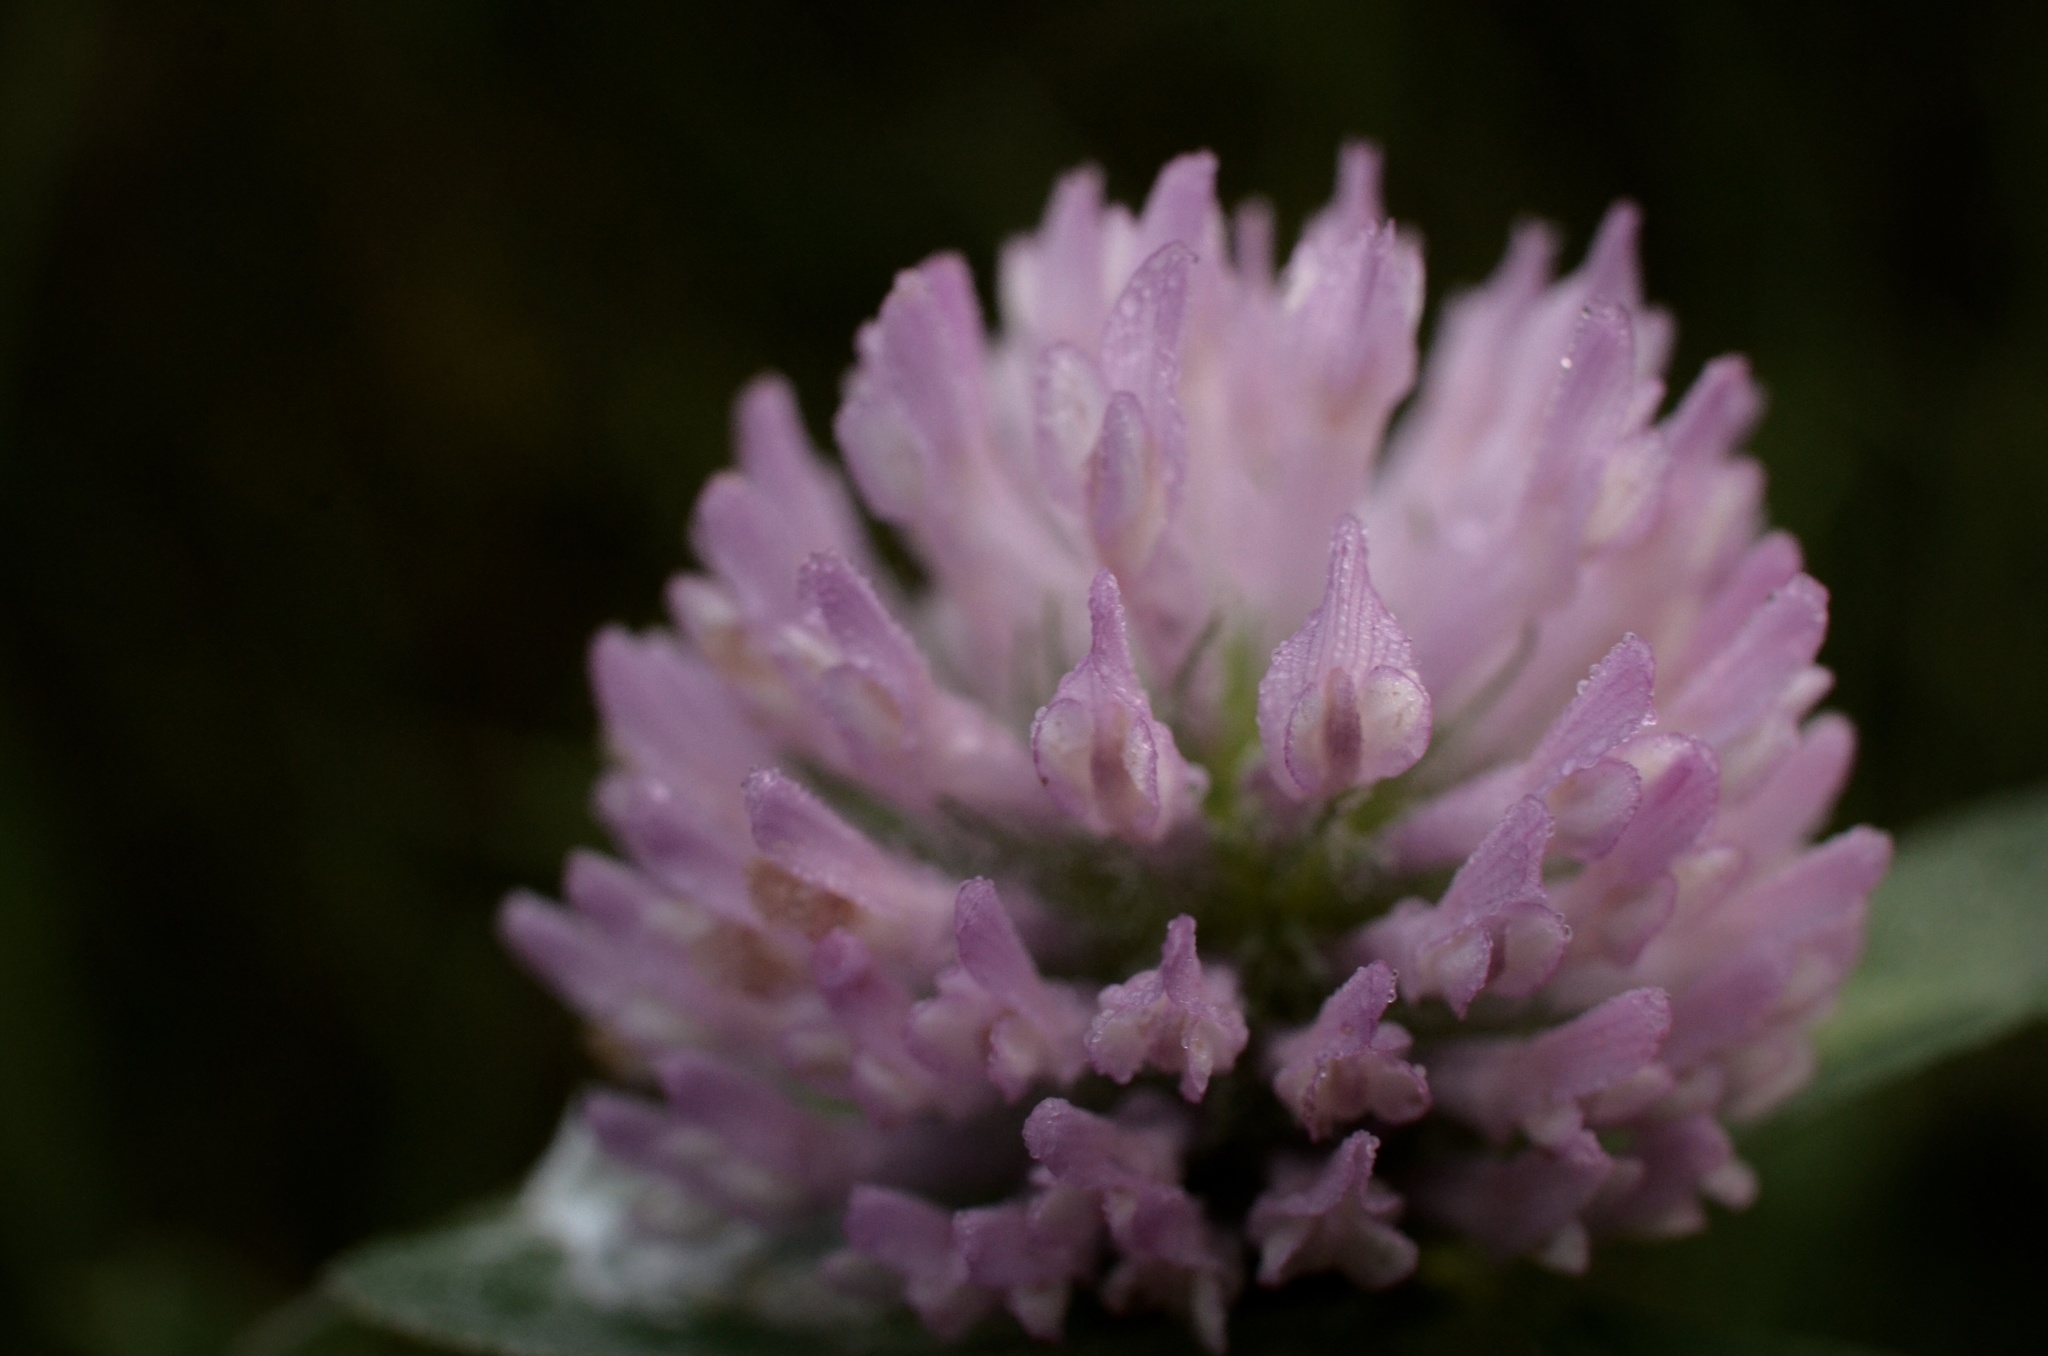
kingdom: Plantae
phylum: Tracheophyta
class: Magnoliopsida
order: Fabales
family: Fabaceae
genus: Trifolium
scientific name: Trifolium pratense
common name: Red clover
